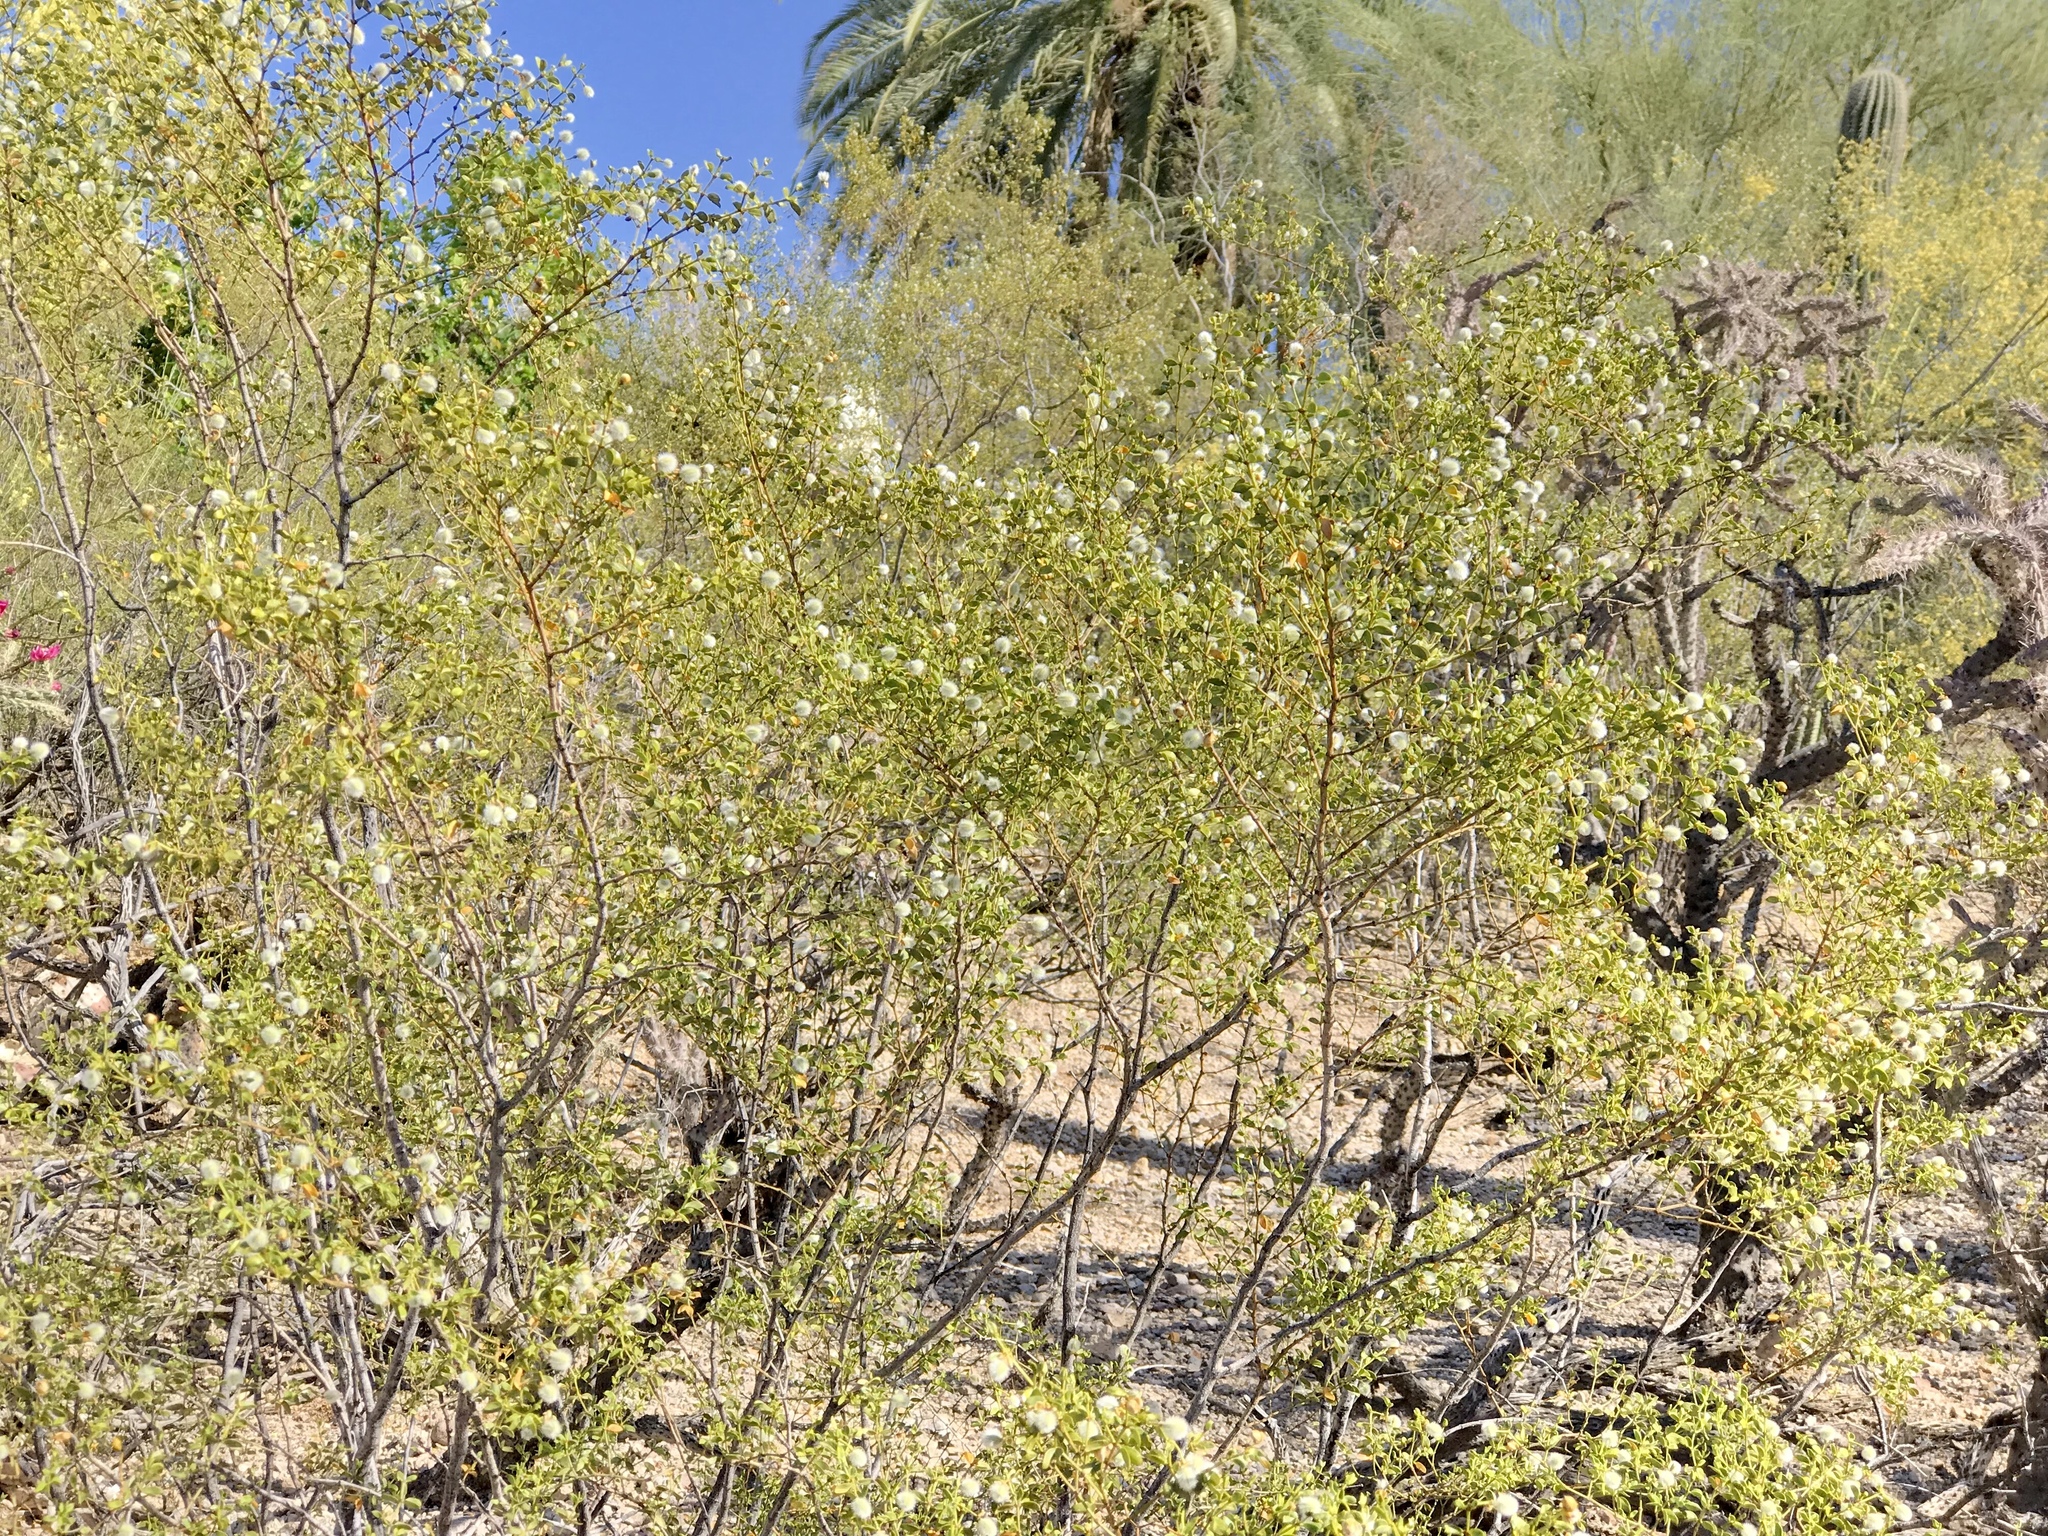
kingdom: Plantae
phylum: Tracheophyta
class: Magnoliopsida
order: Zygophyllales
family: Zygophyllaceae
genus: Larrea
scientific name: Larrea tridentata
